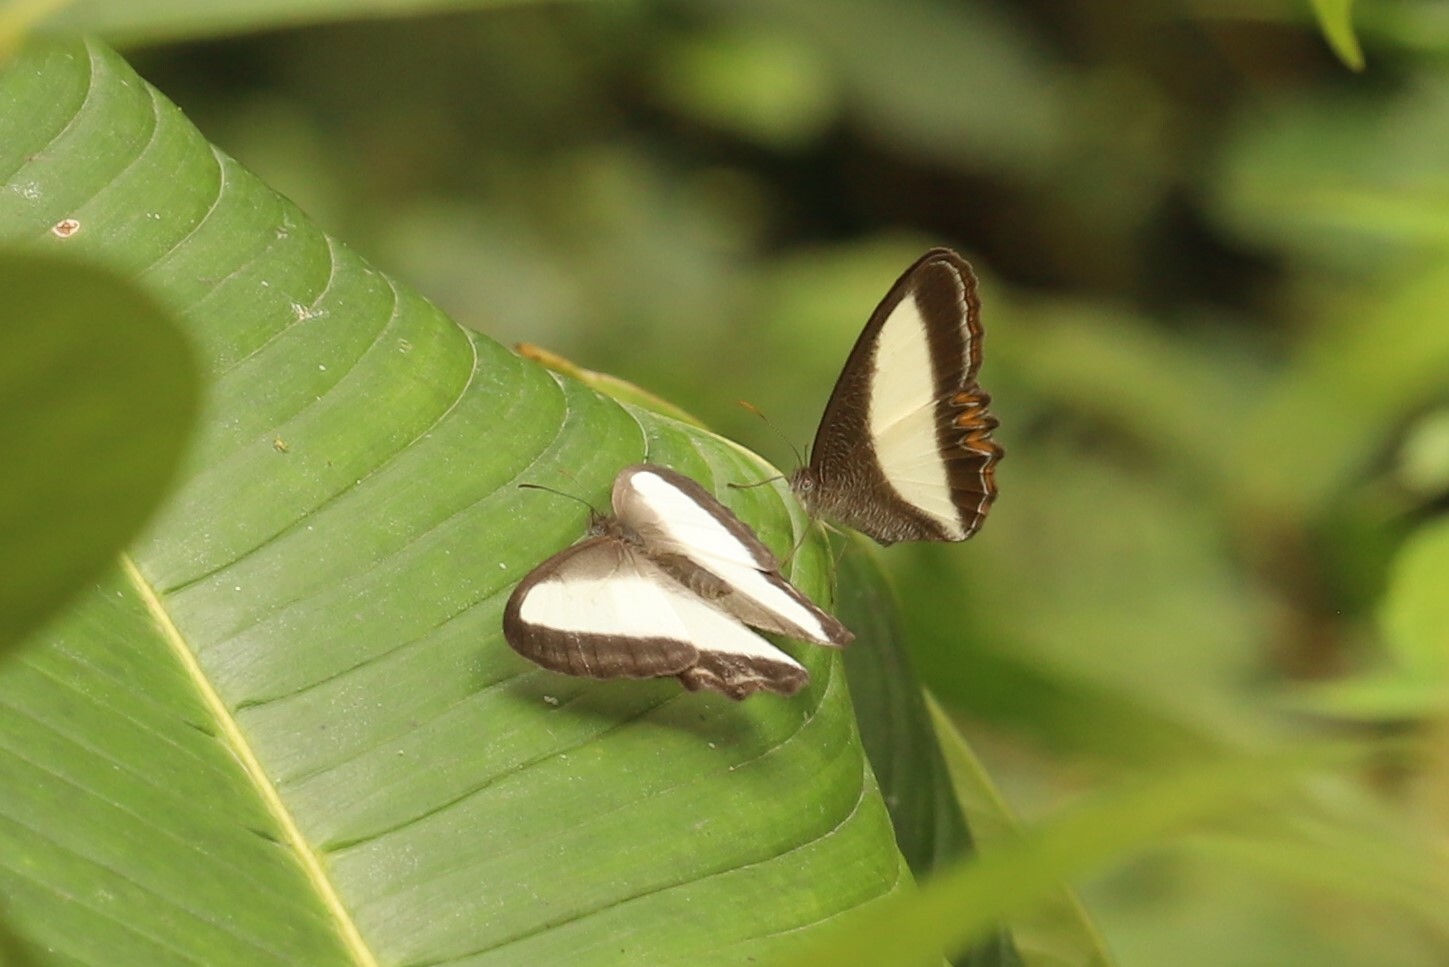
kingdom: Animalia
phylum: Arthropoda
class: Insecta
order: Lepidoptera
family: Nymphalidae
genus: Oressinoma
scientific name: Oressinoma typhla
